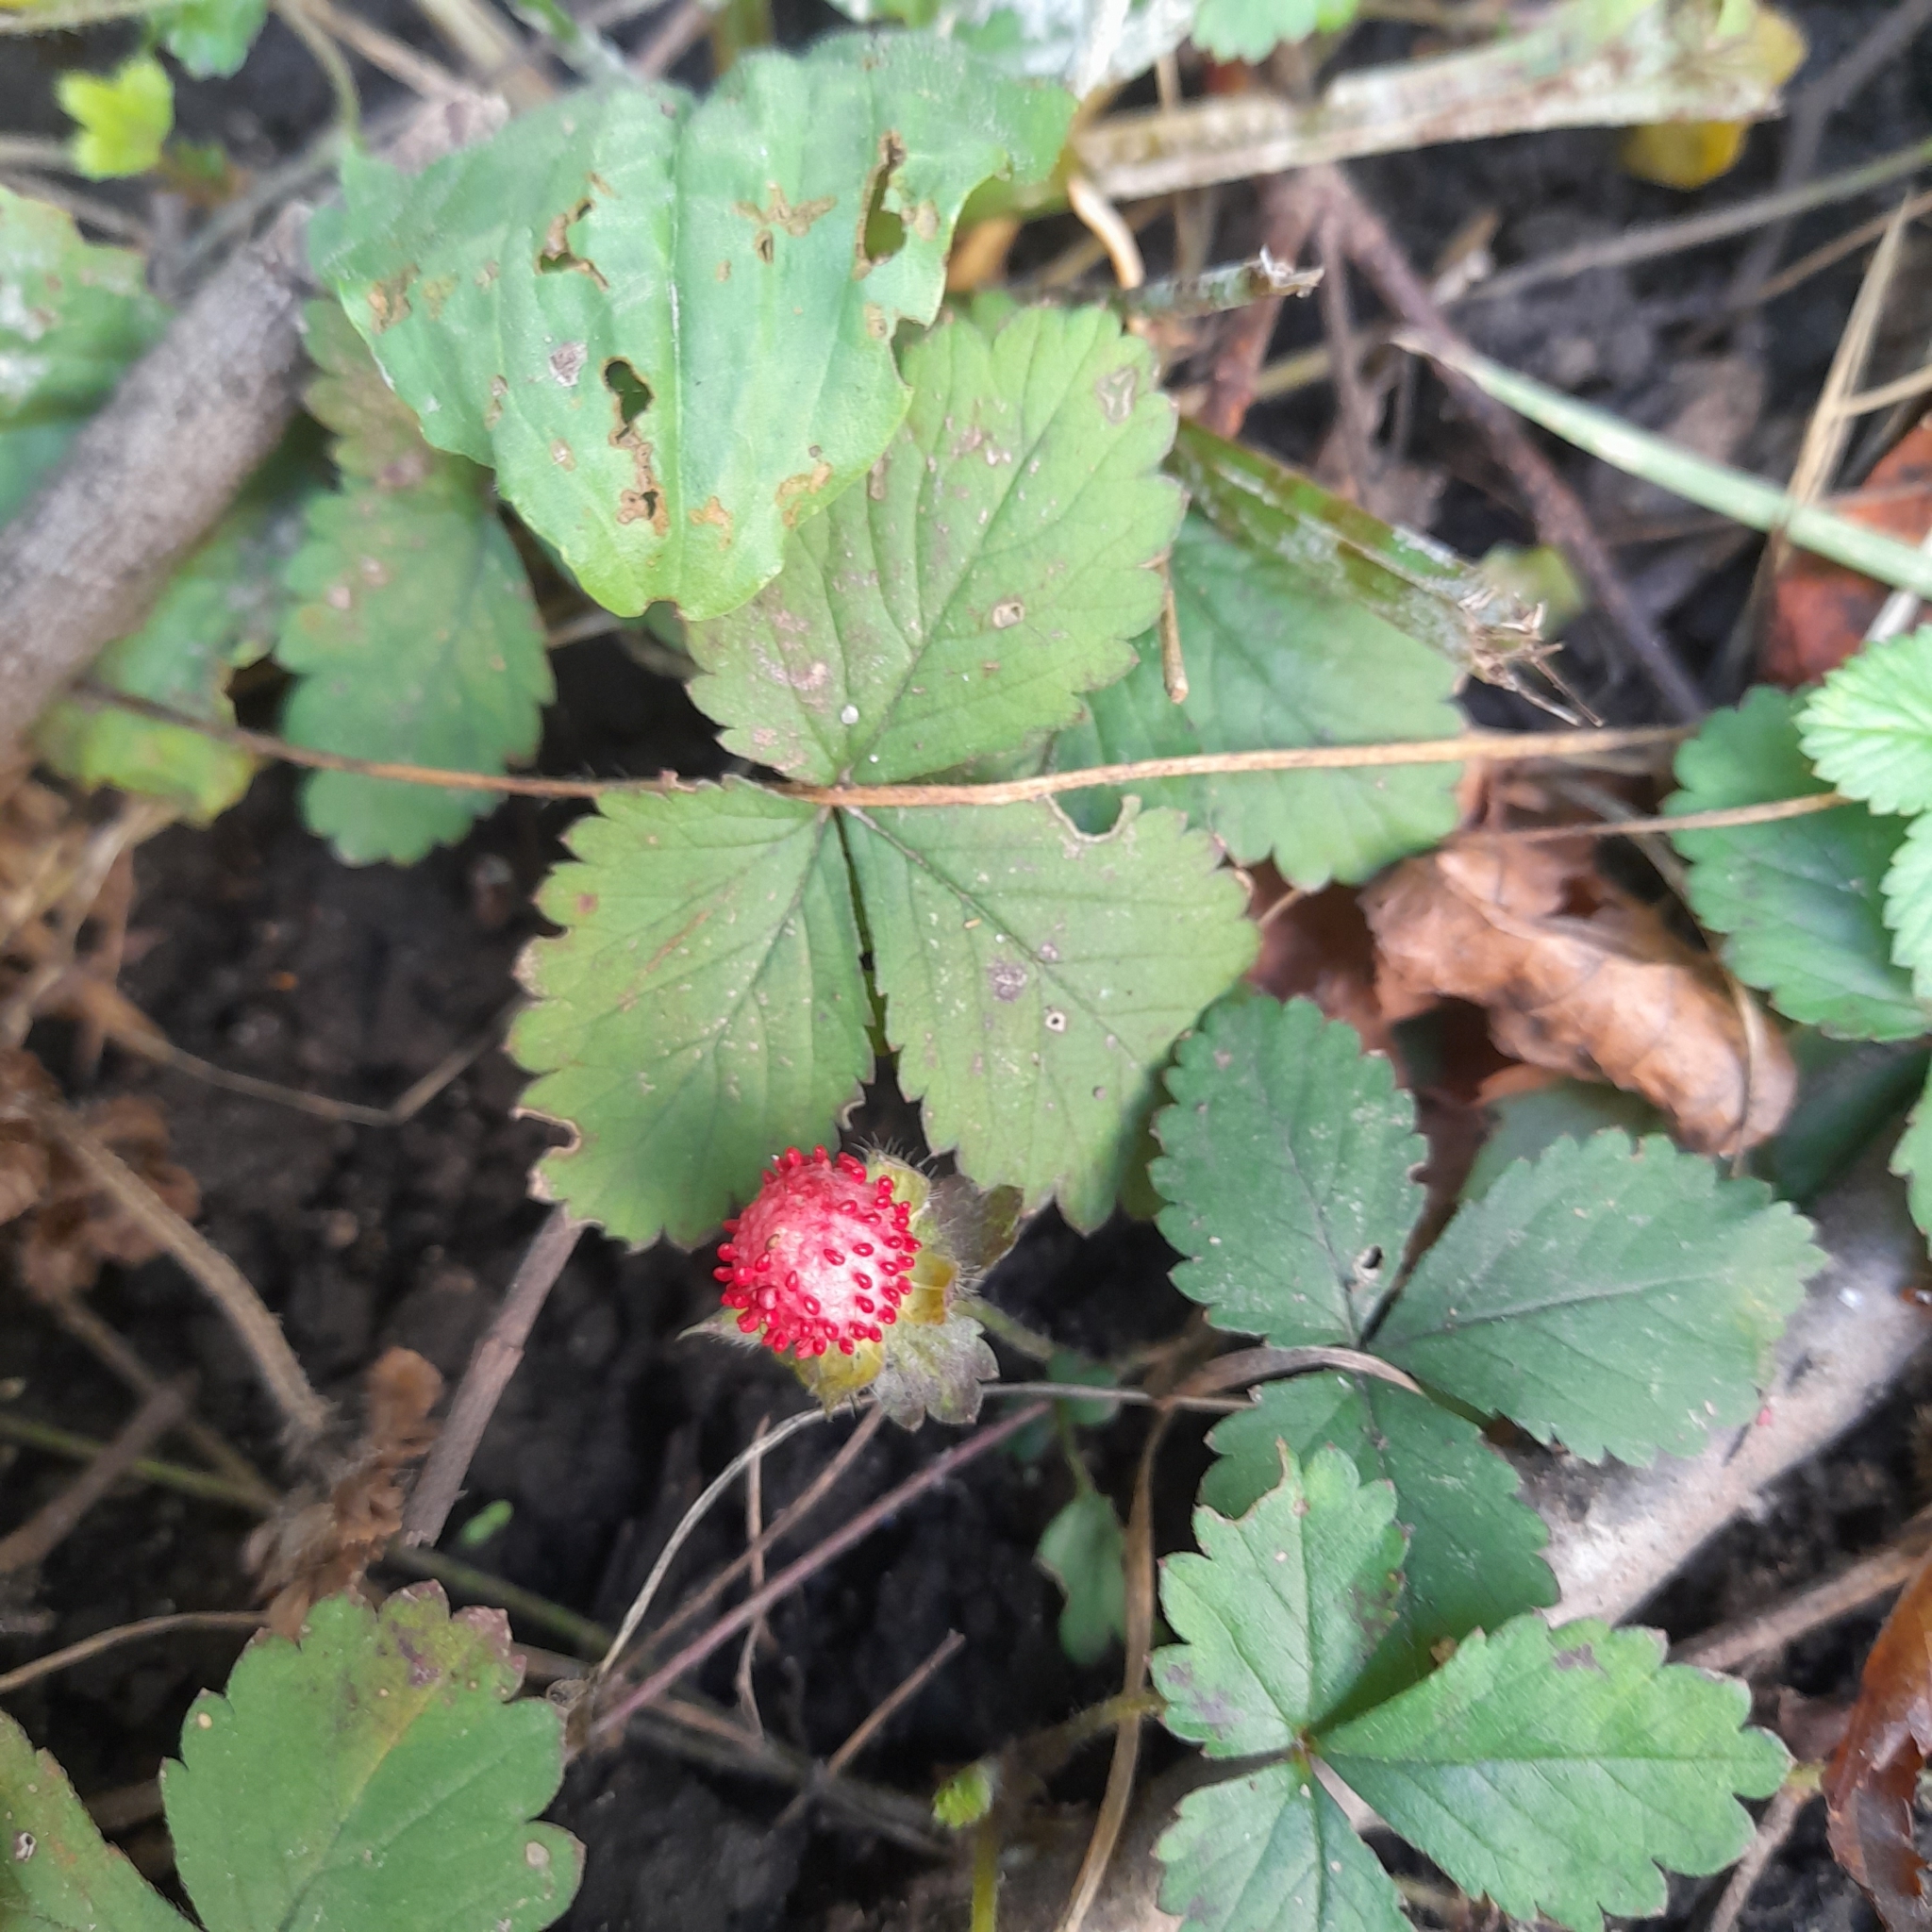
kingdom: Plantae
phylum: Tracheophyta
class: Magnoliopsida
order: Rosales
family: Rosaceae
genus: Potentilla
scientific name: Potentilla indica
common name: Yellow-flowered strawberry
